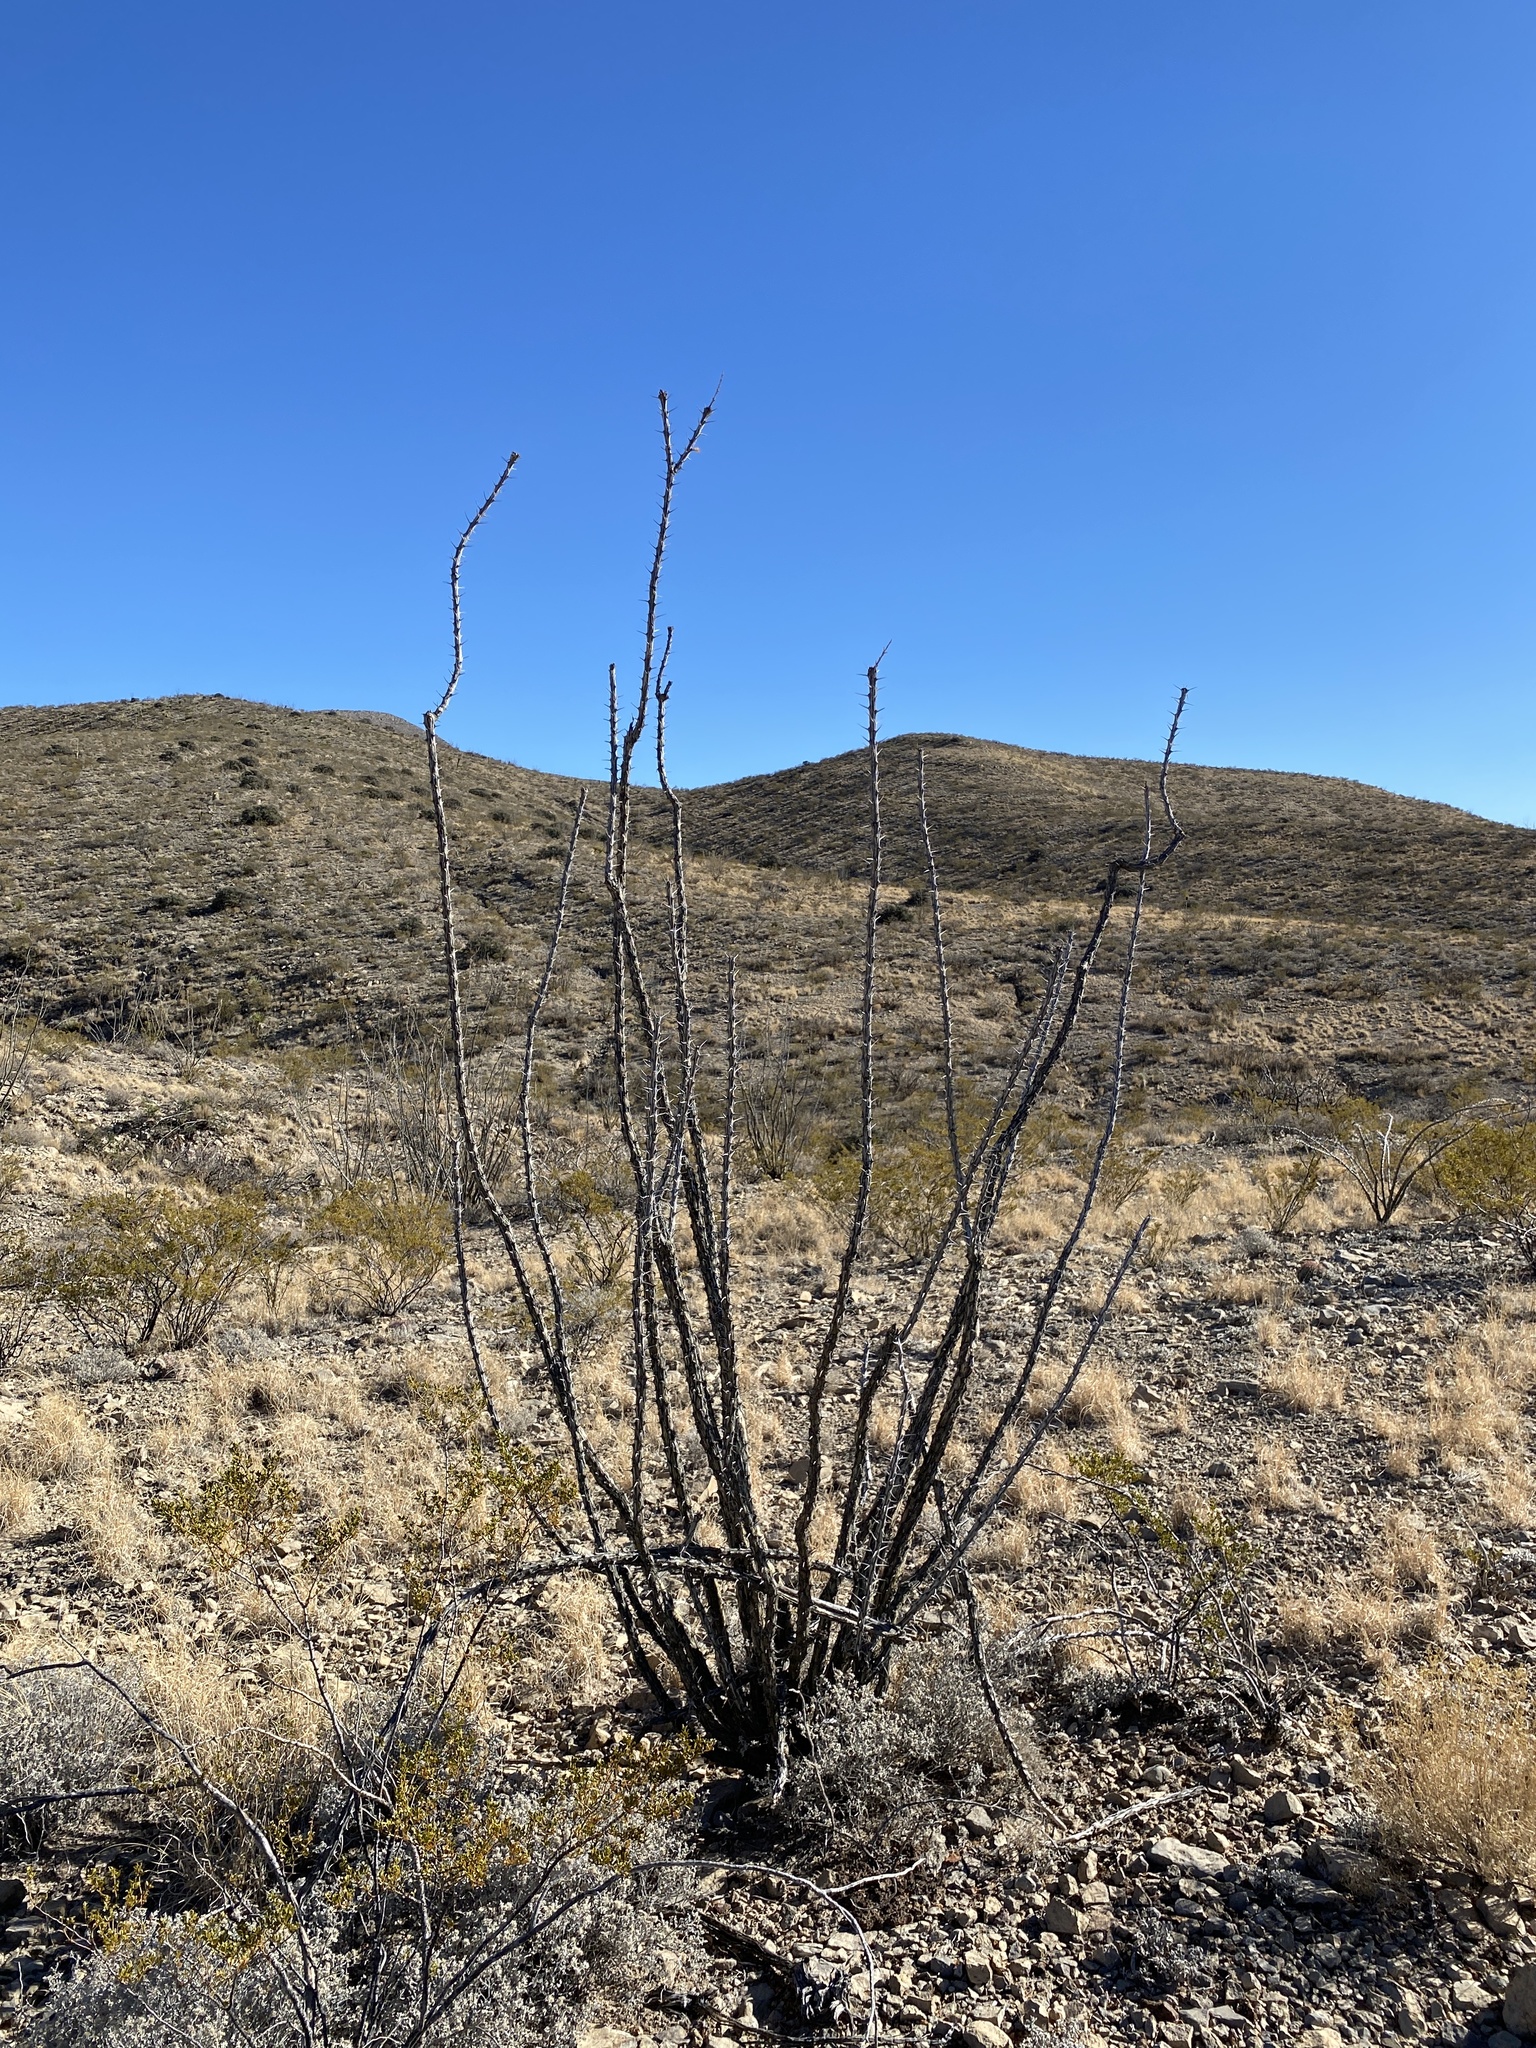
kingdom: Plantae
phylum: Tracheophyta
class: Magnoliopsida
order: Ericales
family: Fouquieriaceae
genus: Fouquieria
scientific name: Fouquieria splendens
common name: Vine-cactus
